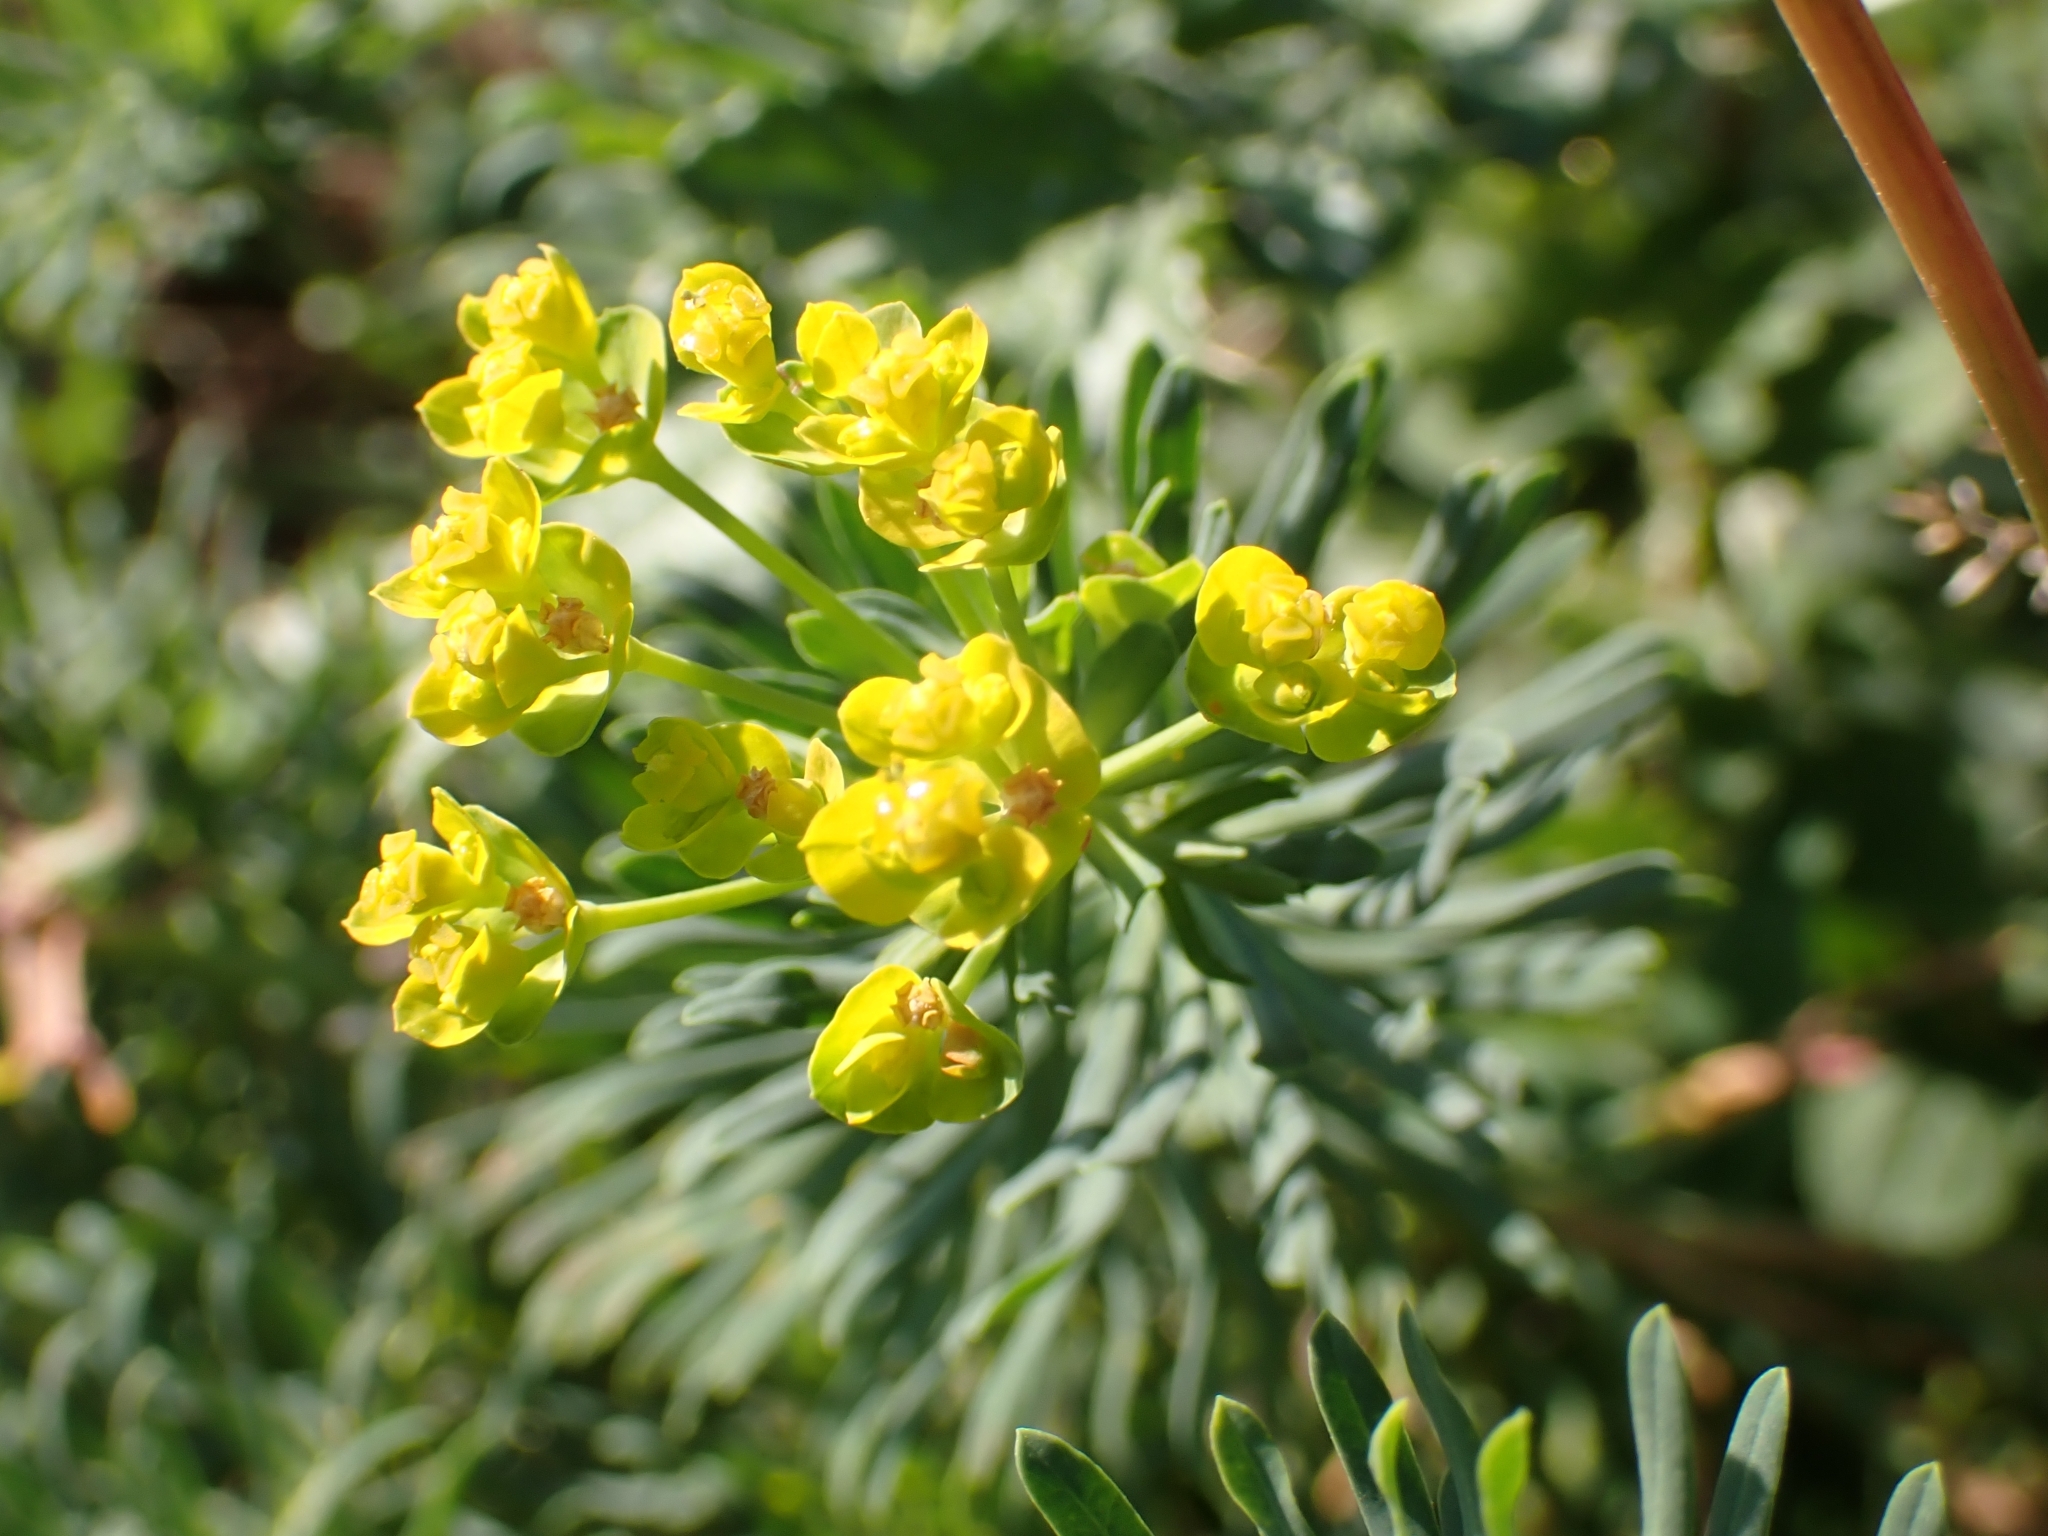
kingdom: Plantae
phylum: Tracheophyta
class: Magnoliopsida
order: Malpighiales
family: Euphorbiaceae
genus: Euphorbia
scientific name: Euphorbia cyparissias
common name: Cypress spurge
